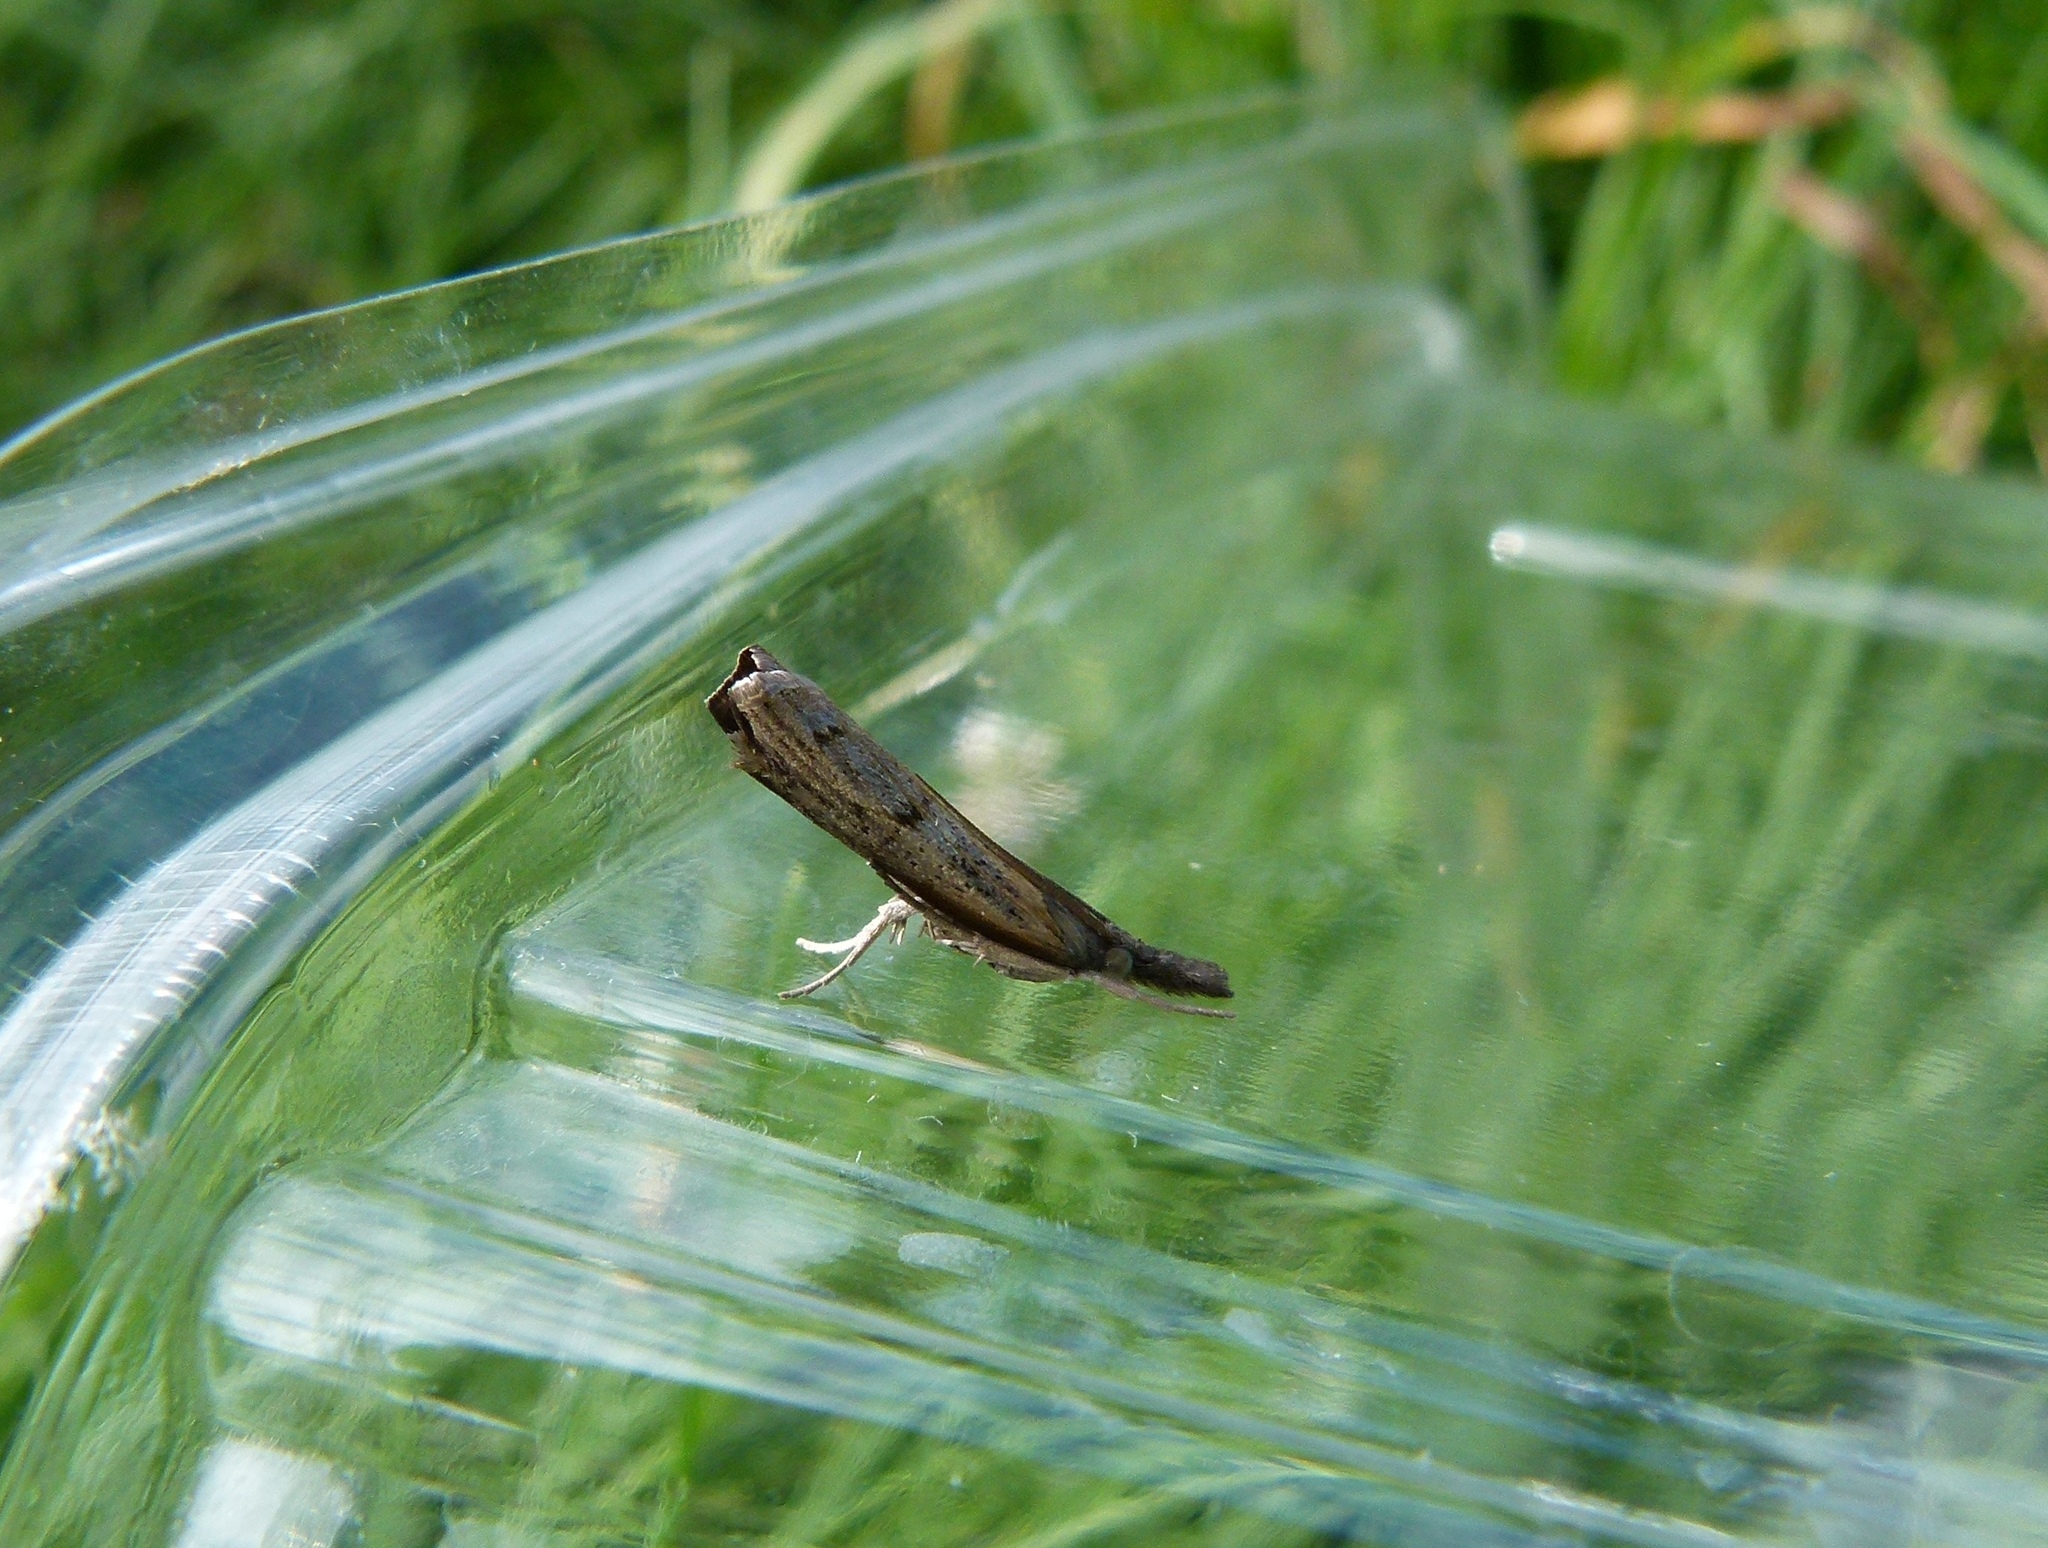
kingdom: Animalia
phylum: Arthropoda
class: Insecta
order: Lepidoptera
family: Crambidae
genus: Fissicrambus
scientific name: Fissicrambus mutabilis
